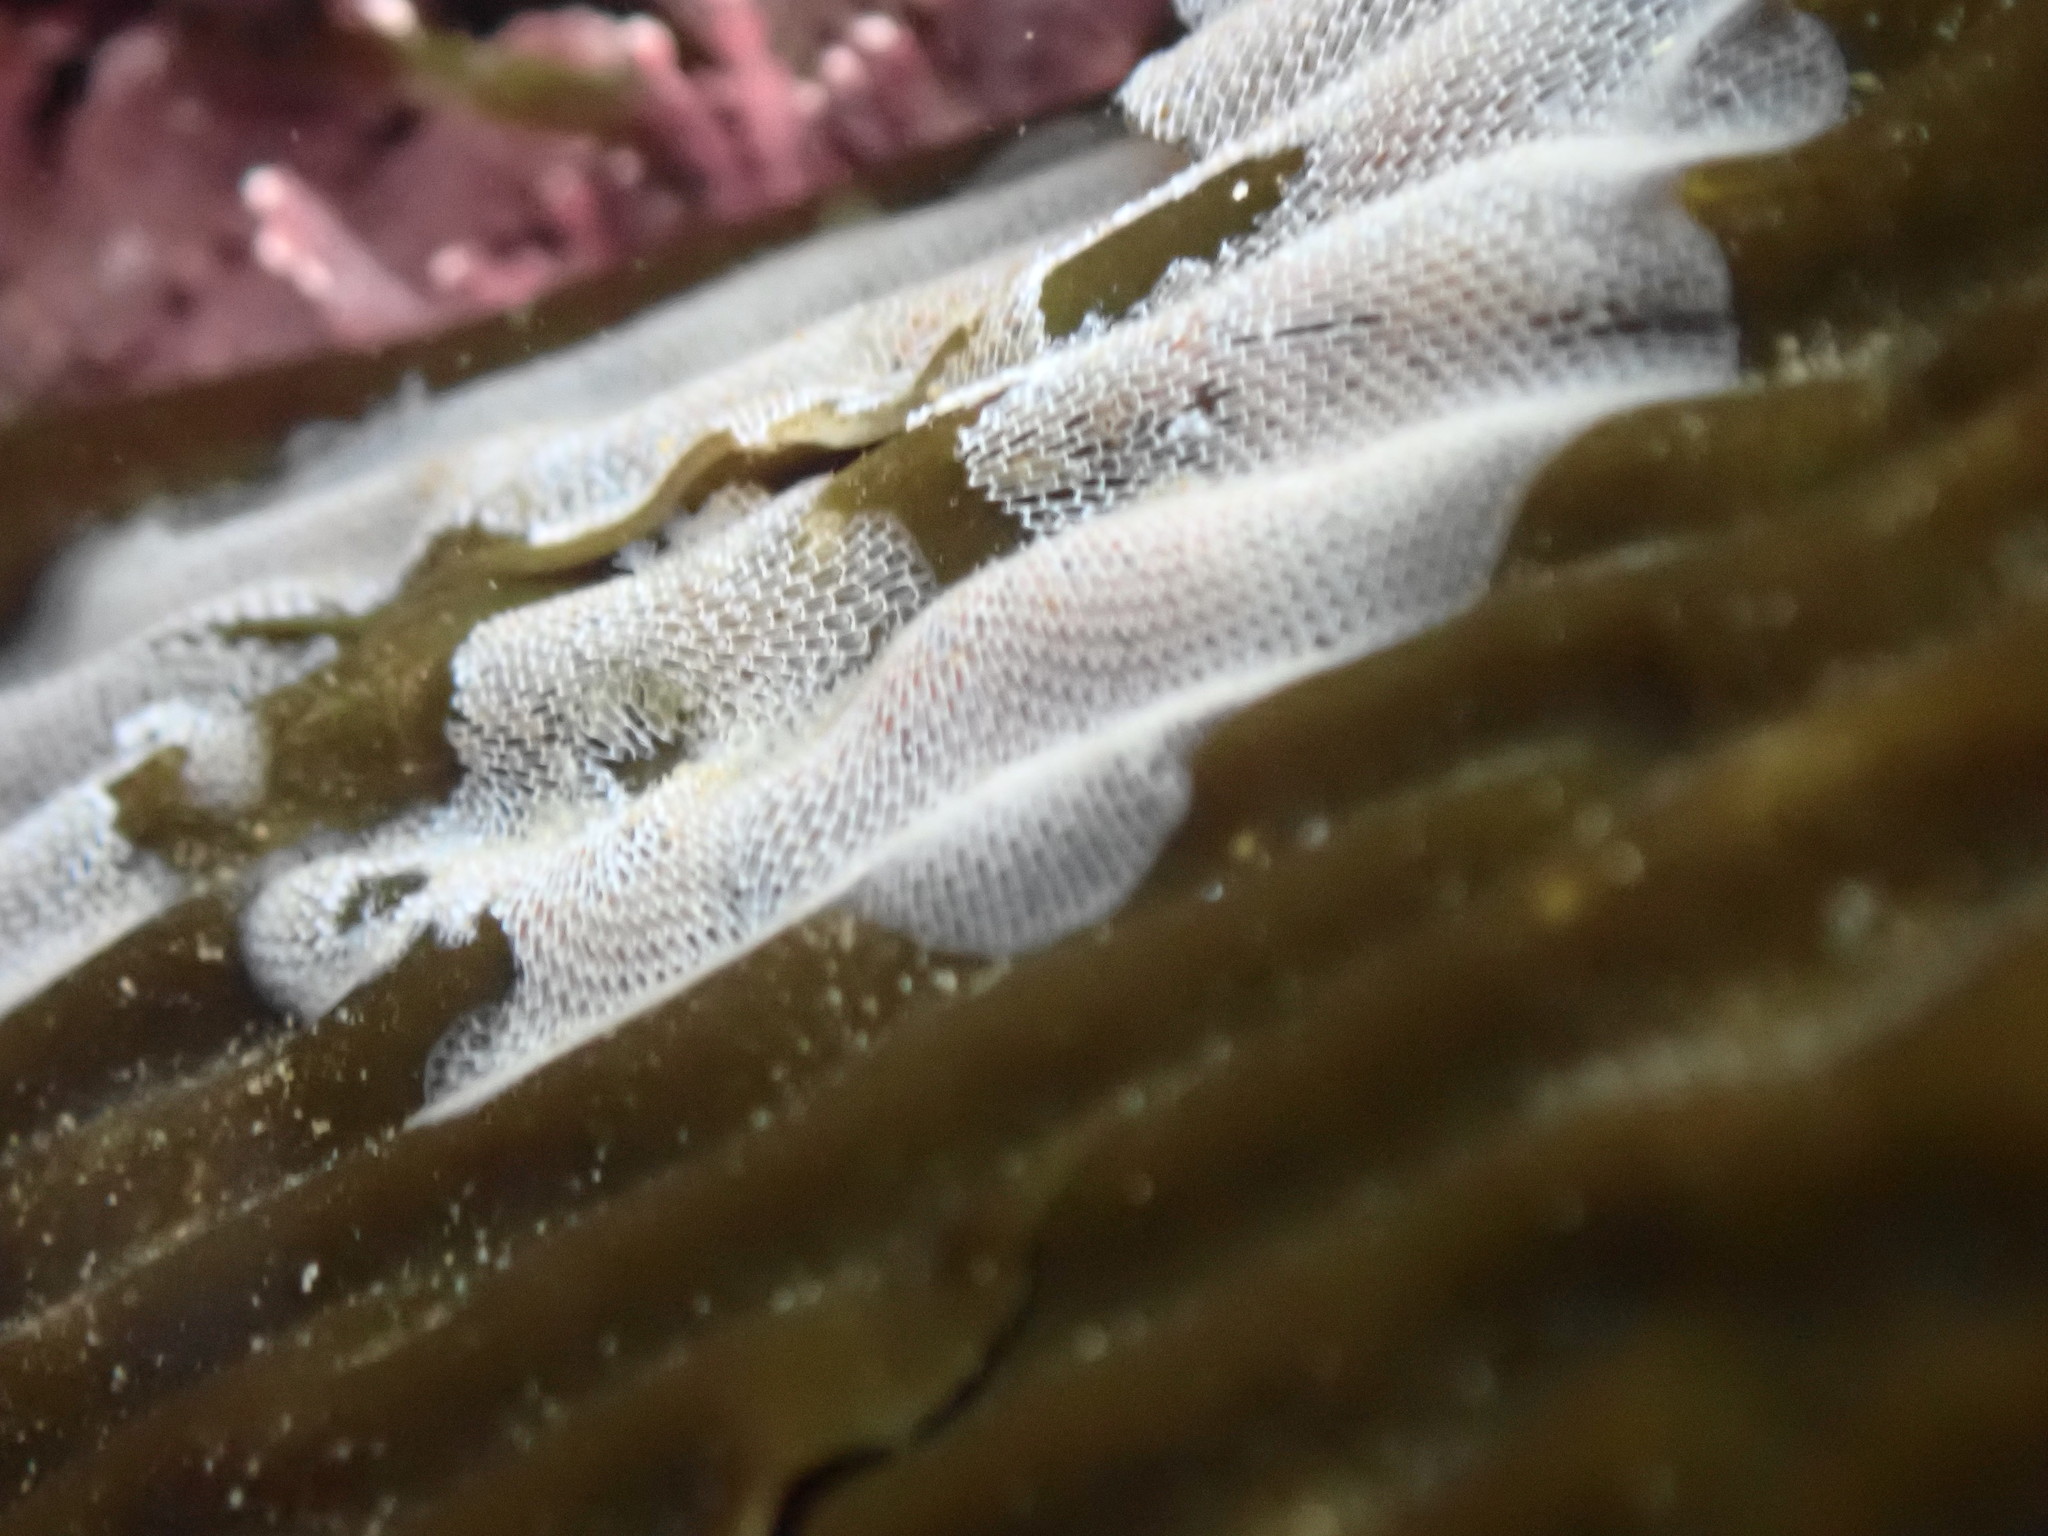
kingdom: Animalia
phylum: Bryozoa
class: Gymnolaemata
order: Cheilostomatida
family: Membraniporidae
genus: Membranipora
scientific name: Membranipora membranacea
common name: Sea mat
